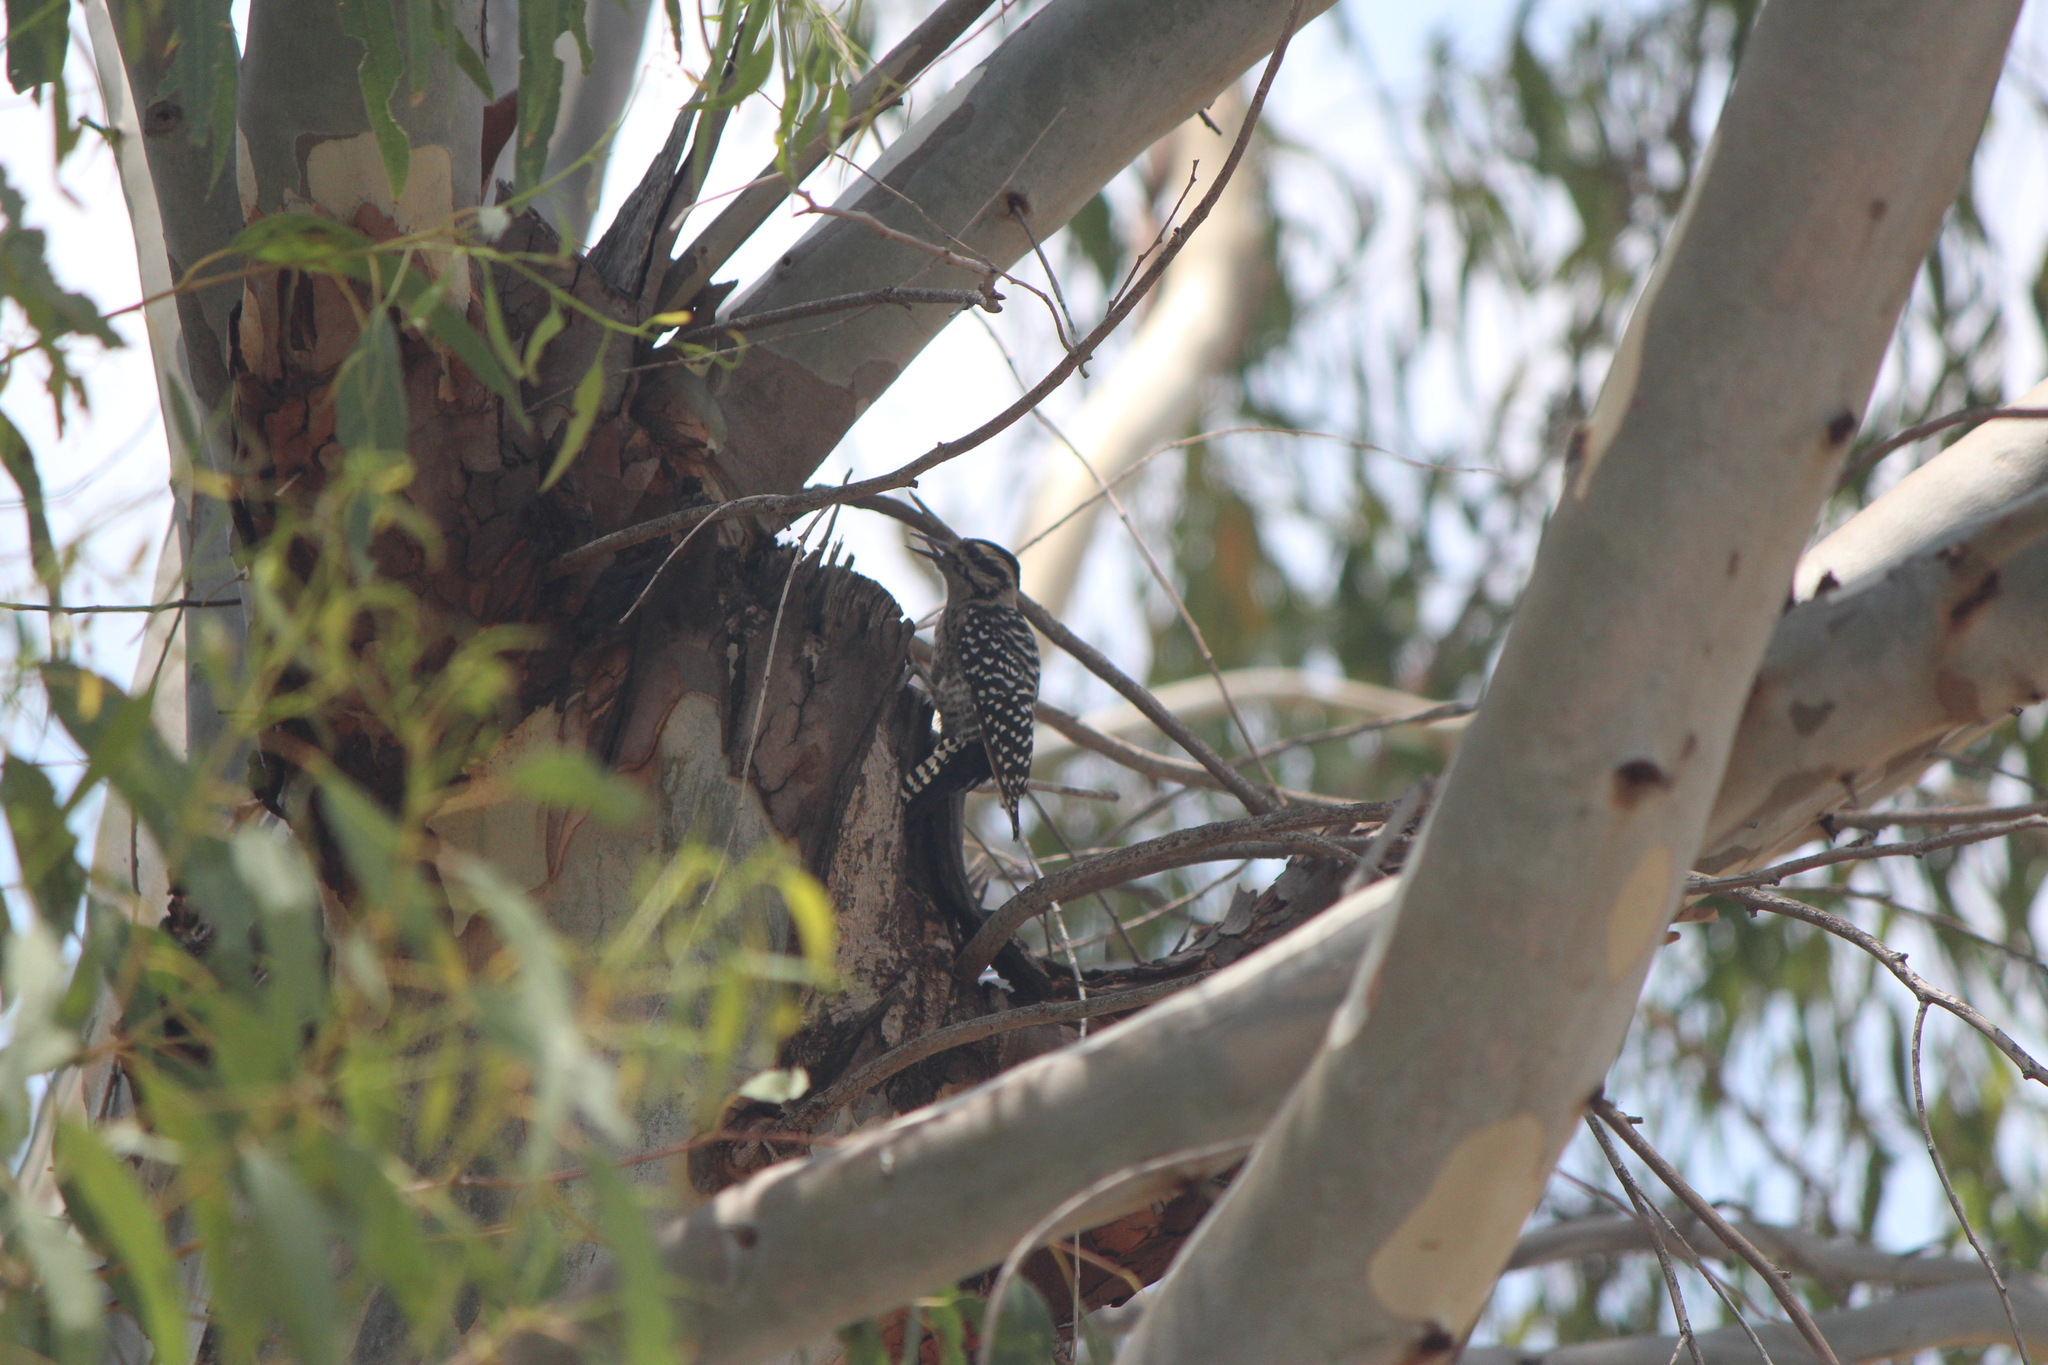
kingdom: Animalia
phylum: Chordata
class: Aves
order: Piciformes
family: Picidae
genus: Dryobates
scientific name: Dryobates scalaris
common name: Ladder-backed woodpecker
